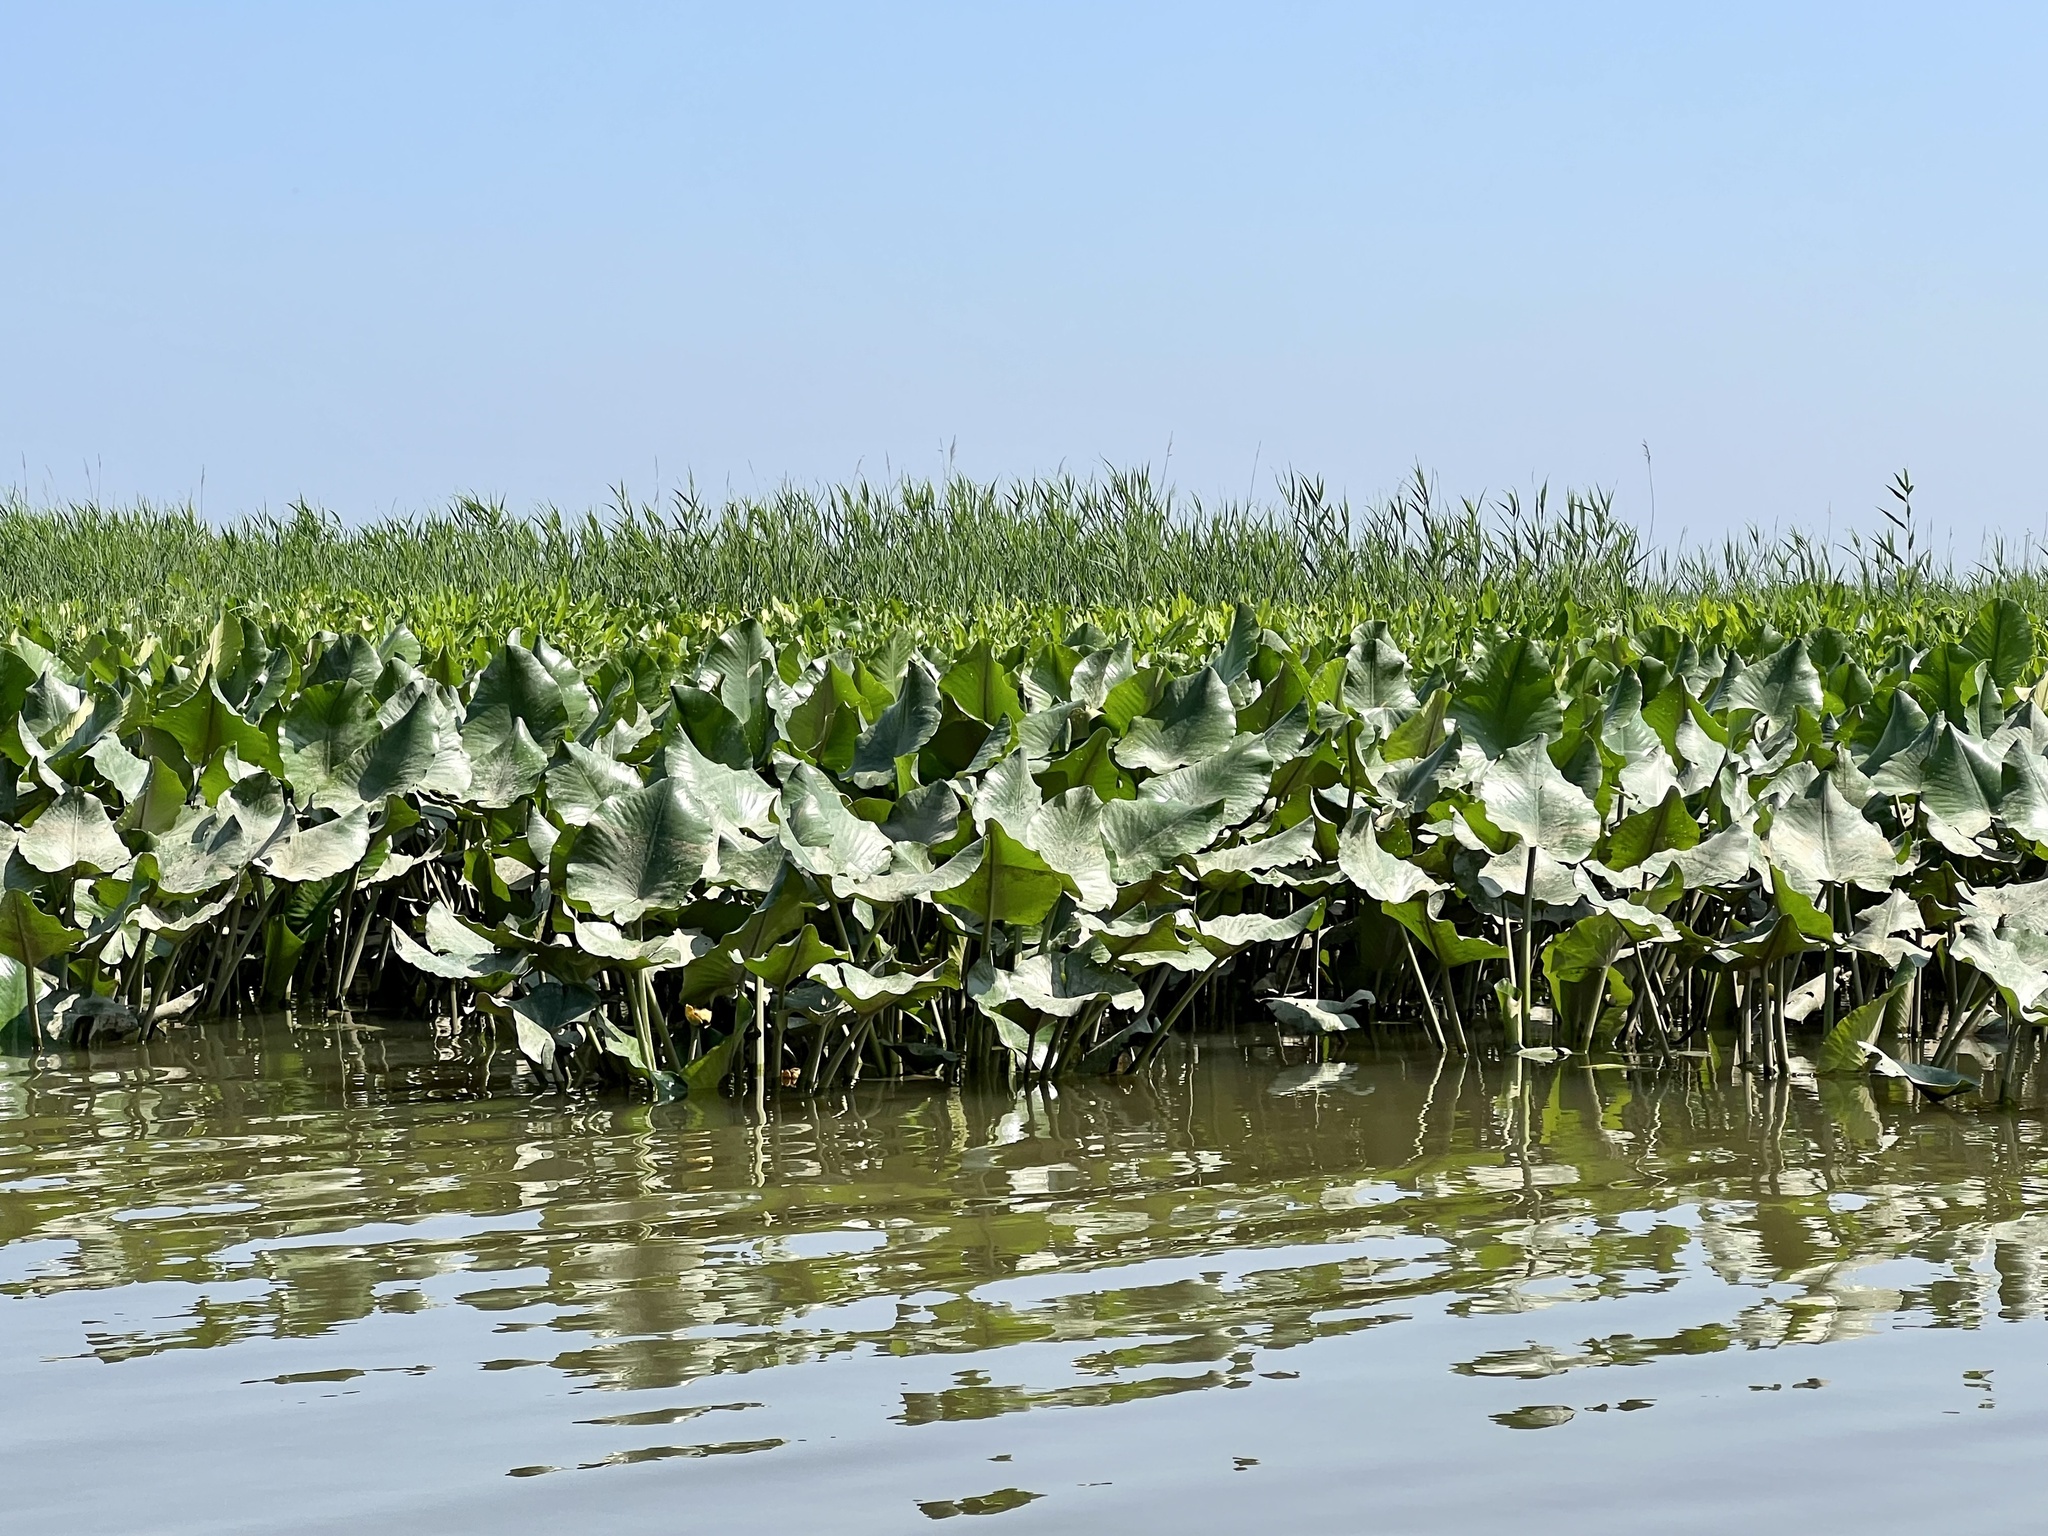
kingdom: Plantae
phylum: Tracheophyta
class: Magnoliopsida
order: Nymphaeales
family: Nymphaeaceae
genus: Nuphar
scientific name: Nuphar advena
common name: Spatter-dock
